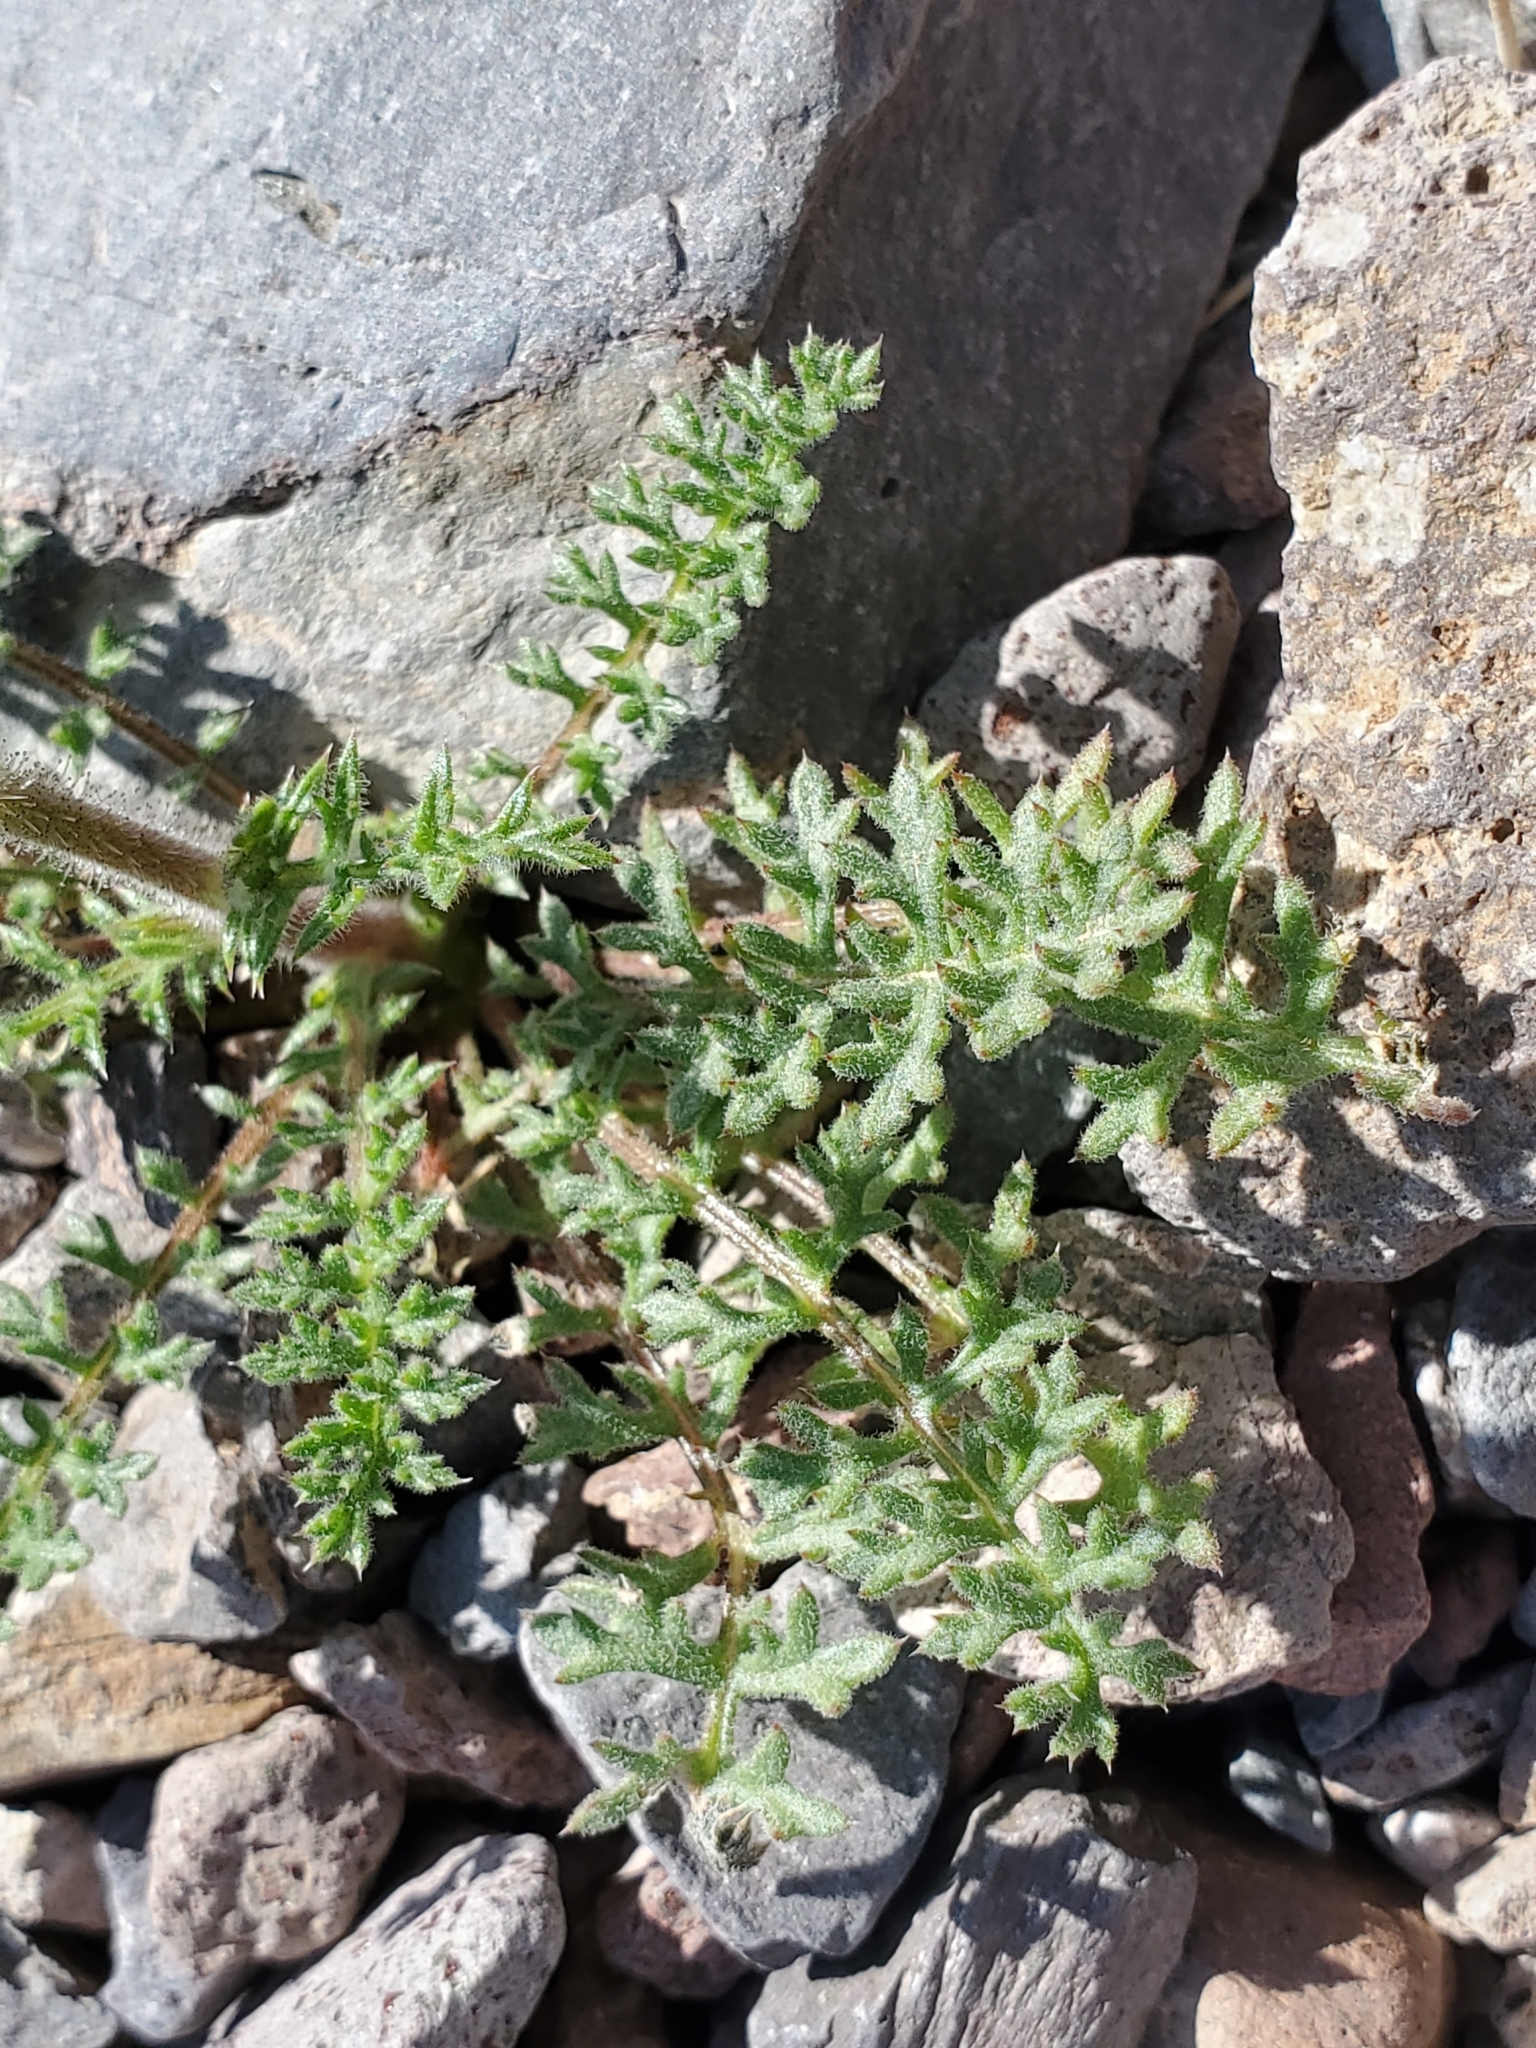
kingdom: Plantae
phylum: Tracheophyta
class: Magnoliopsida
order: Ericales
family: Polemoniaceae
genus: Gilia
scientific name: Gilia stellata
